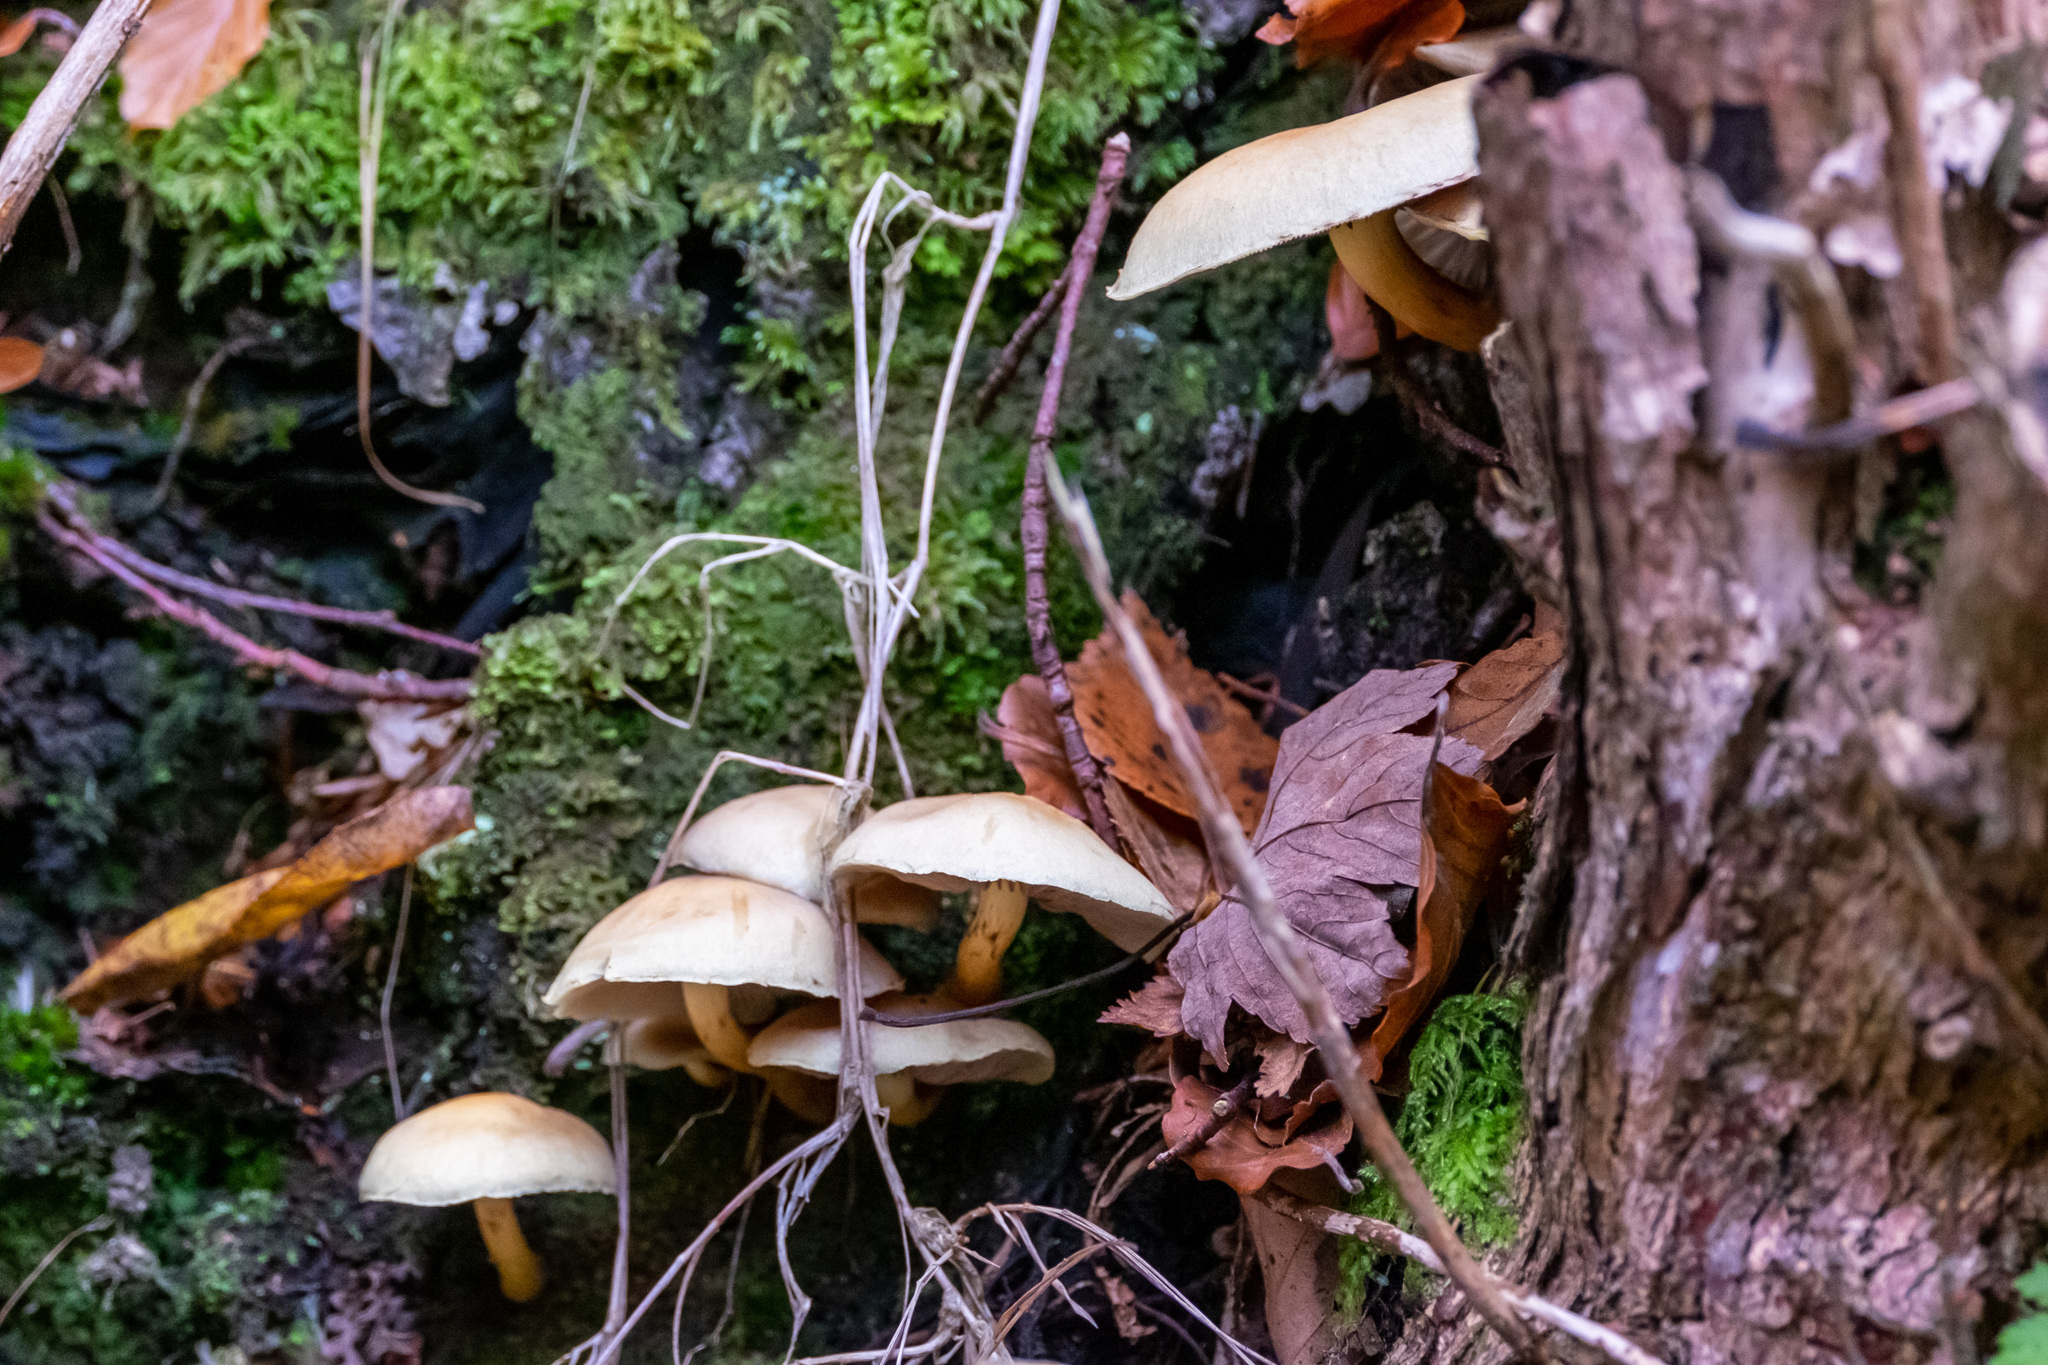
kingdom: Fungi
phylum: Basidiomycota
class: Agaricomycetes
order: Agaricales
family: Strophariaceae
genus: Hypholoma
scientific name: Hypholoma fasciculare
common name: Sulphur tuft
